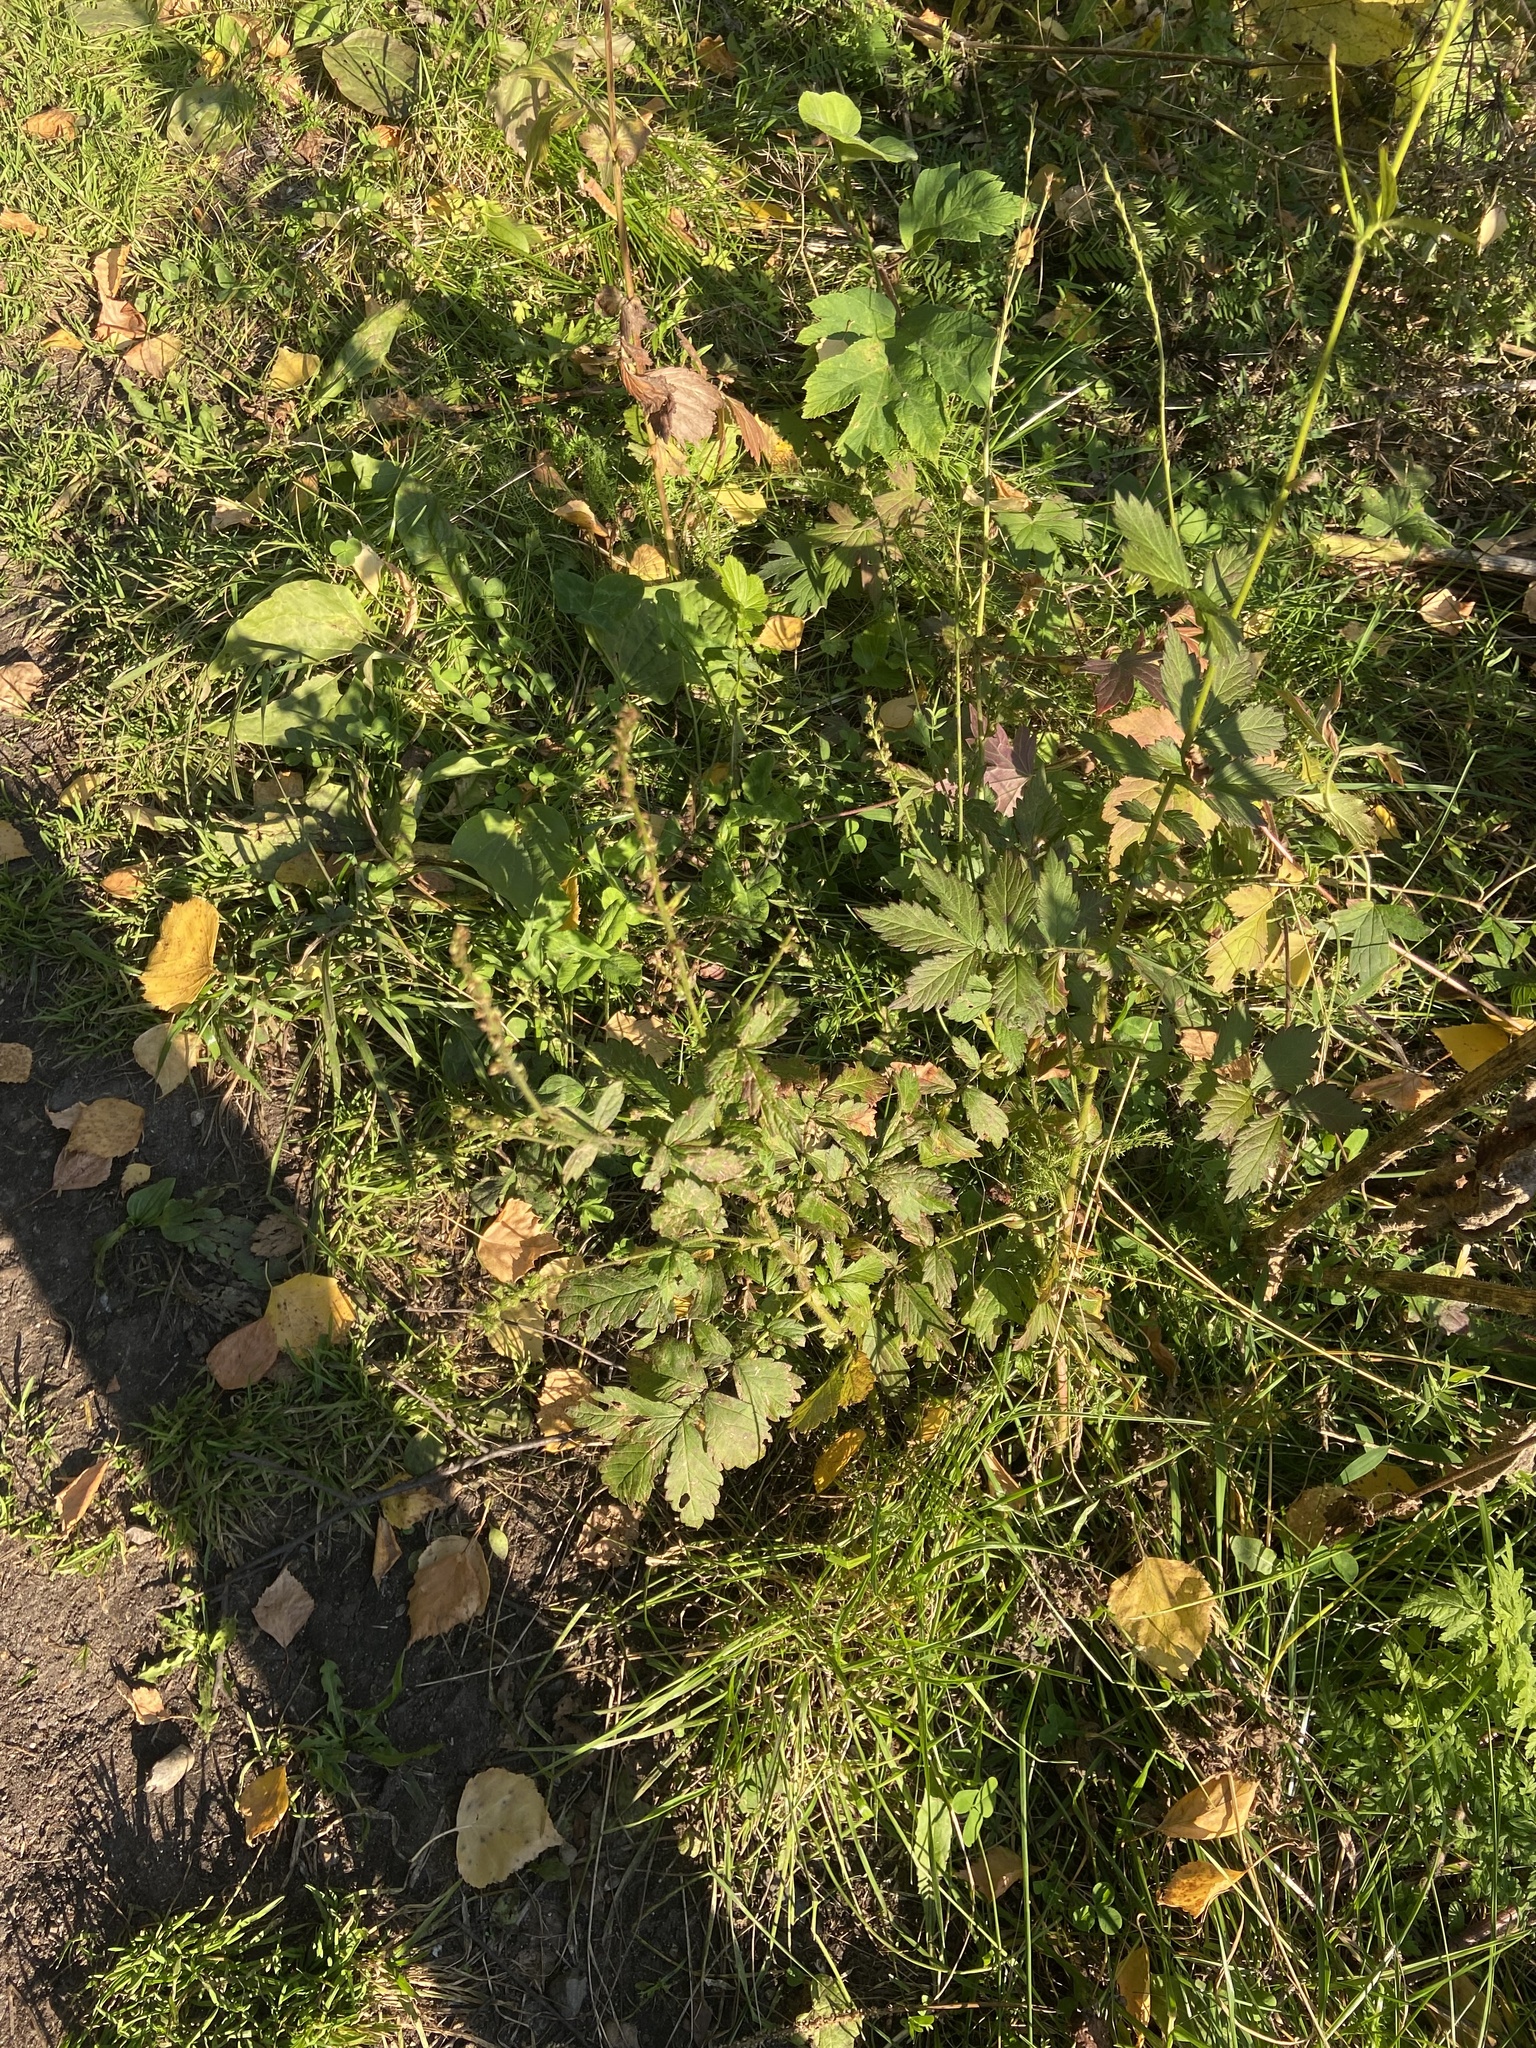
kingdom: Plantae
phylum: Tracheophyta
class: Magnoliopsida
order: Rosales
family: Rosaceae
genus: Agrimonia
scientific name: Agrimonia pilosa
